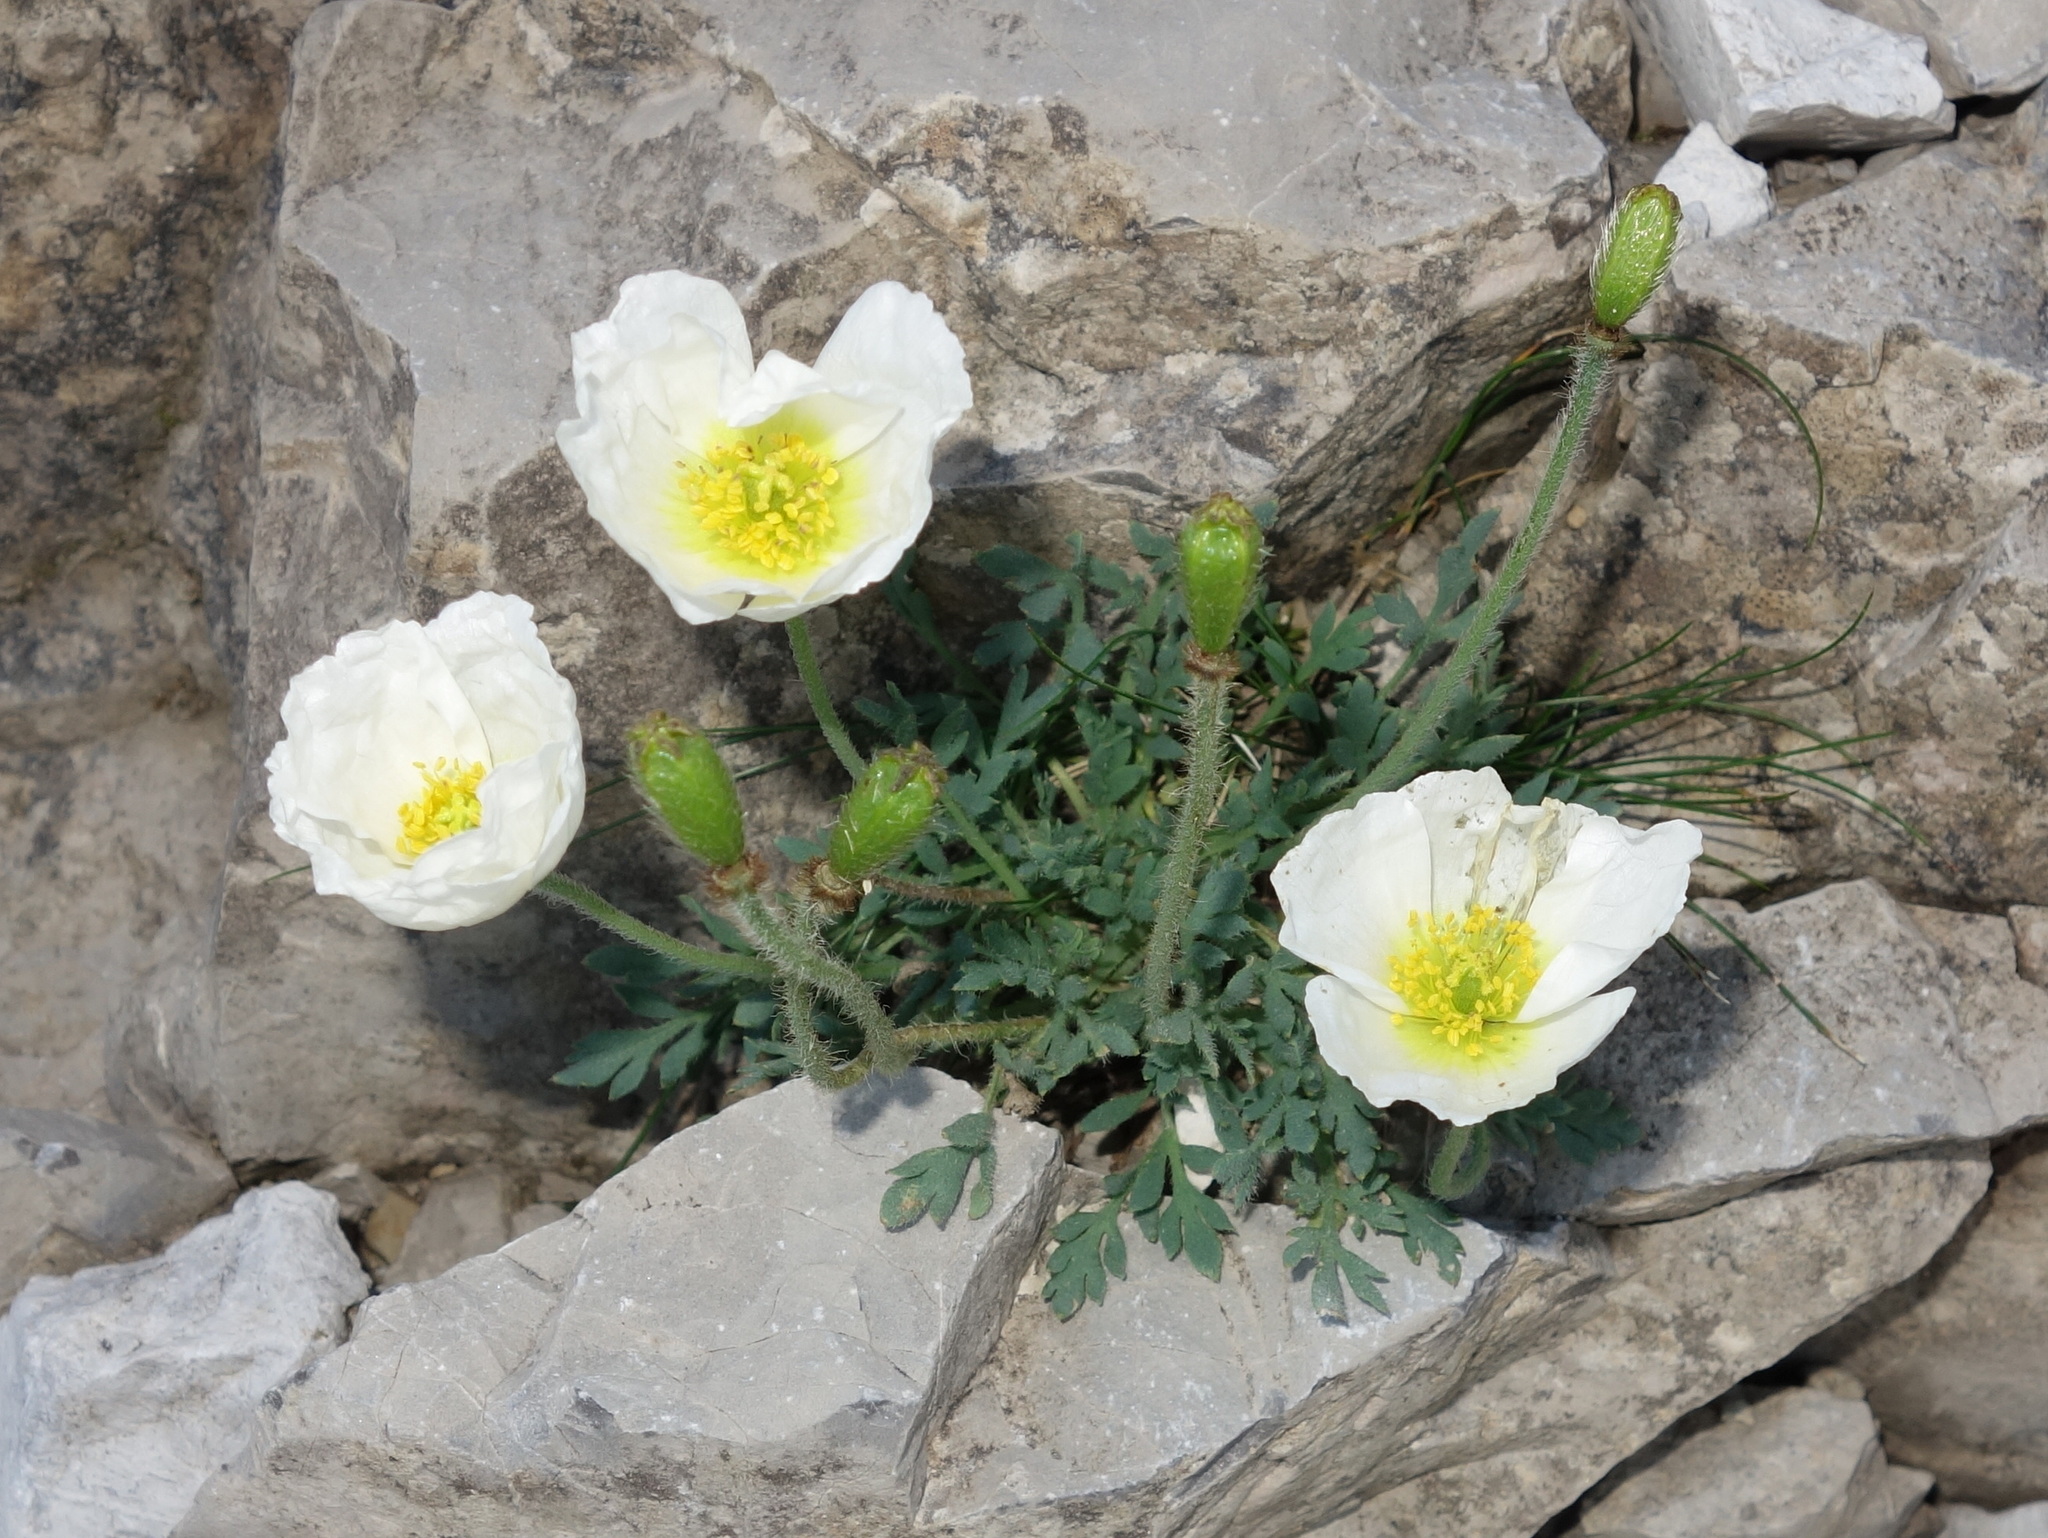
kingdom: Plantae
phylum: Tracheophyta
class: Magnoliopsida
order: Ranunculales
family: Papaveraceae
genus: Papaver
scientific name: Papaver alpinum
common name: Austrian poppy
